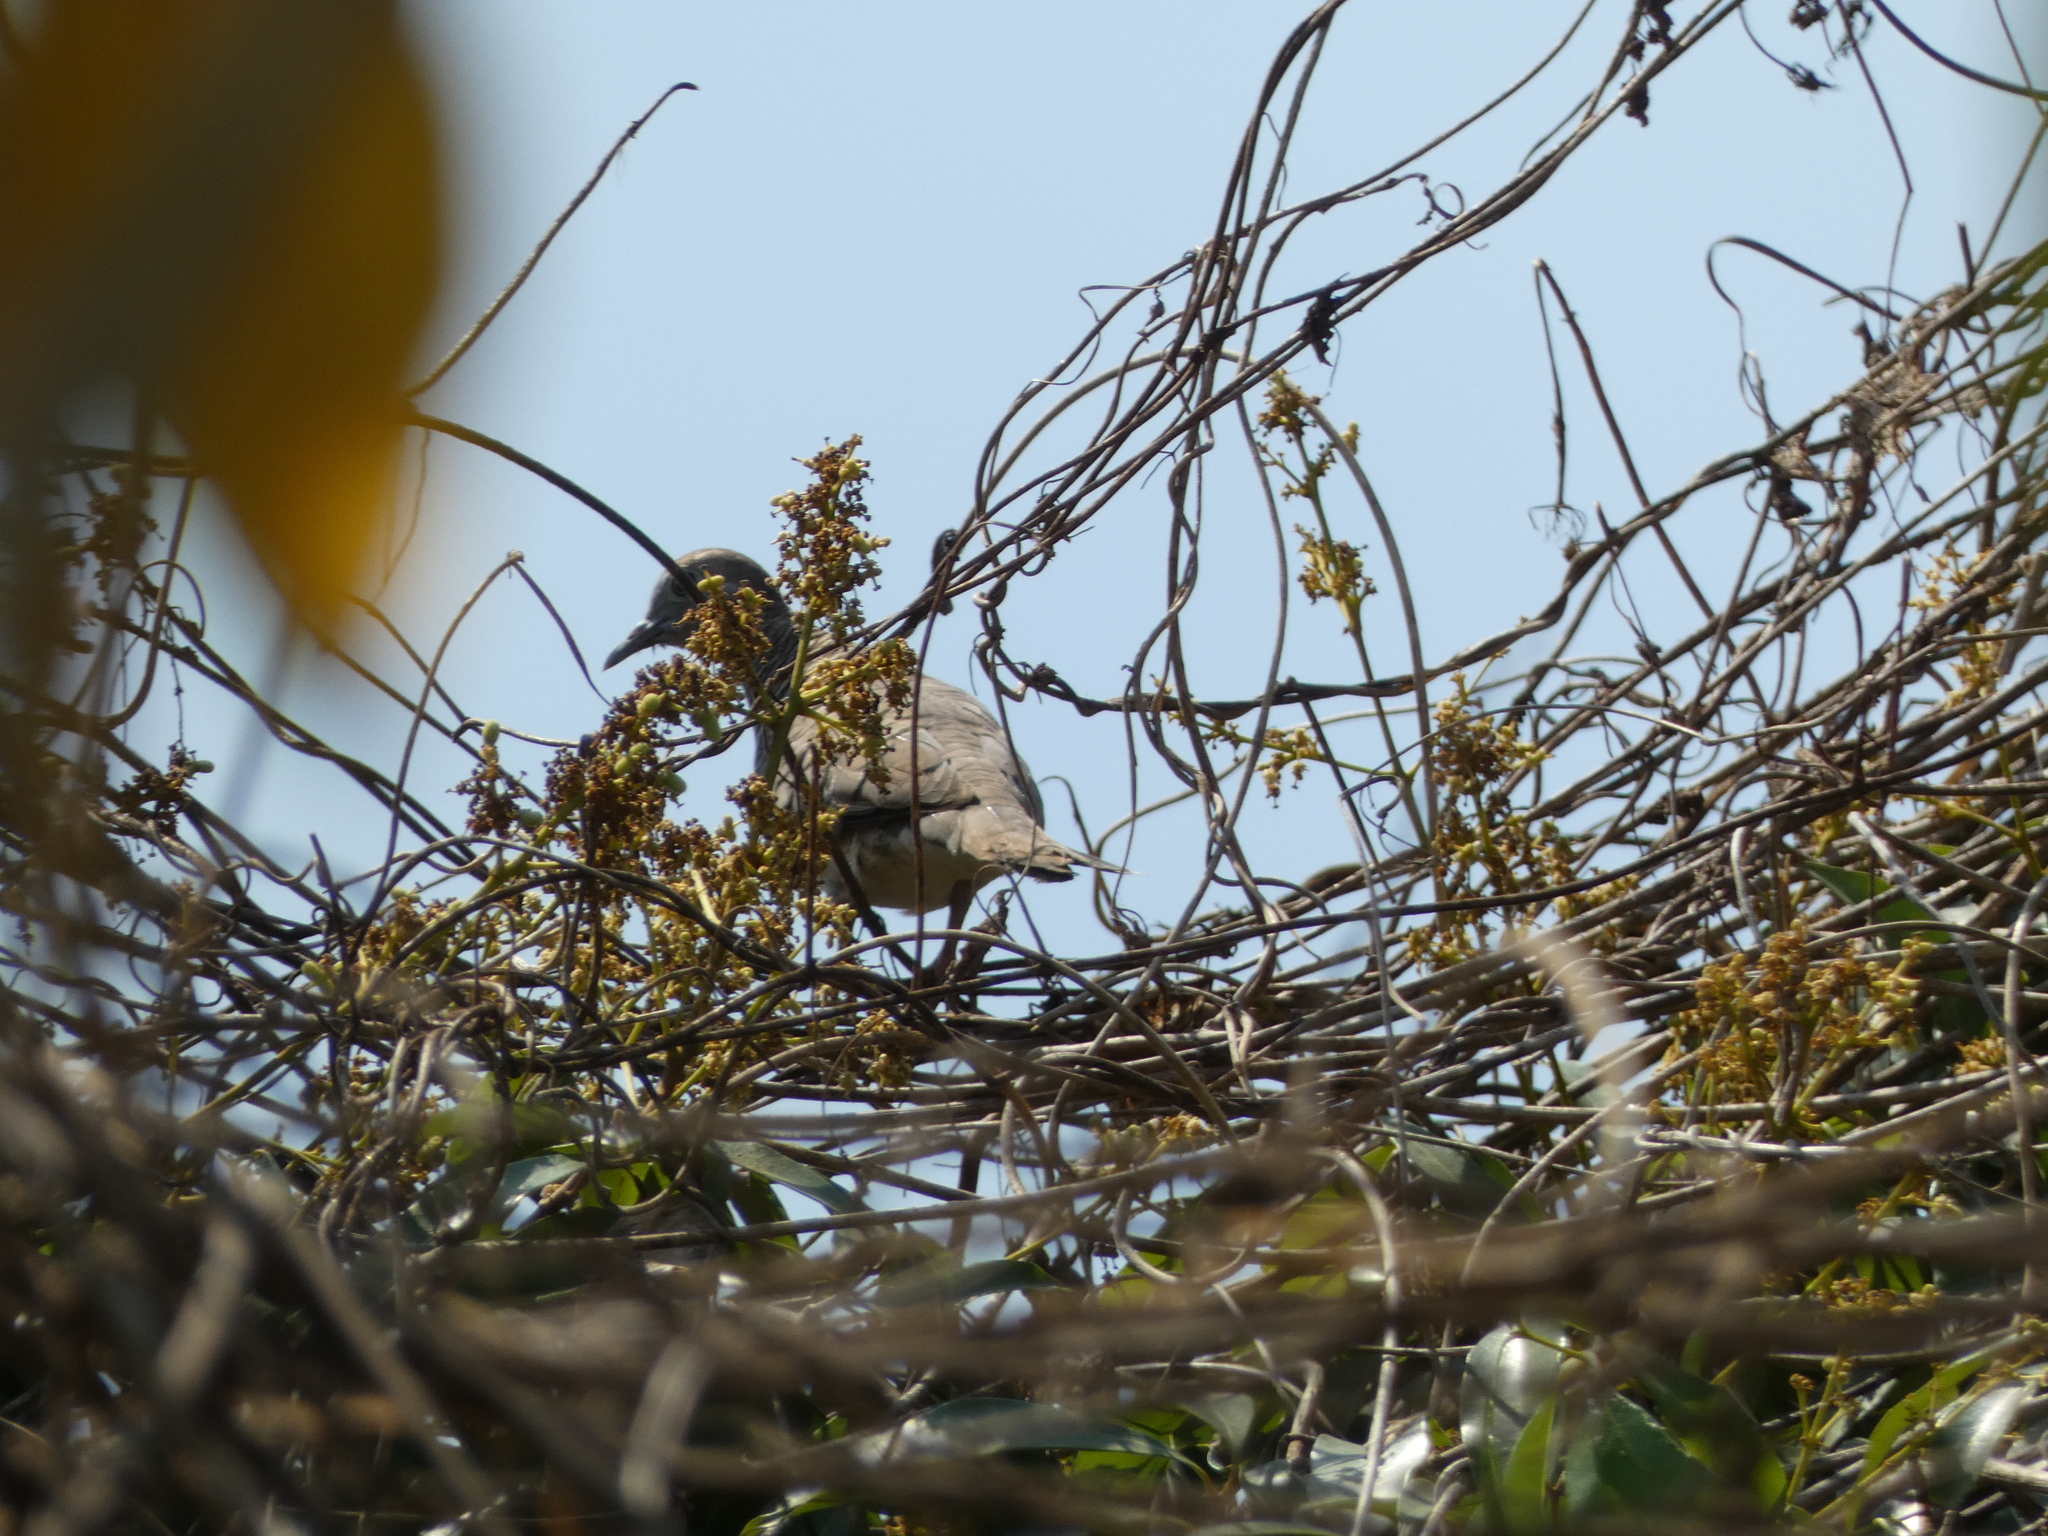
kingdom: Animalia
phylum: Chordata
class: Aves
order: Columbiformes
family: Columbidae
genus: Geopelia
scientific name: Geopelia striata
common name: Zebra dove
